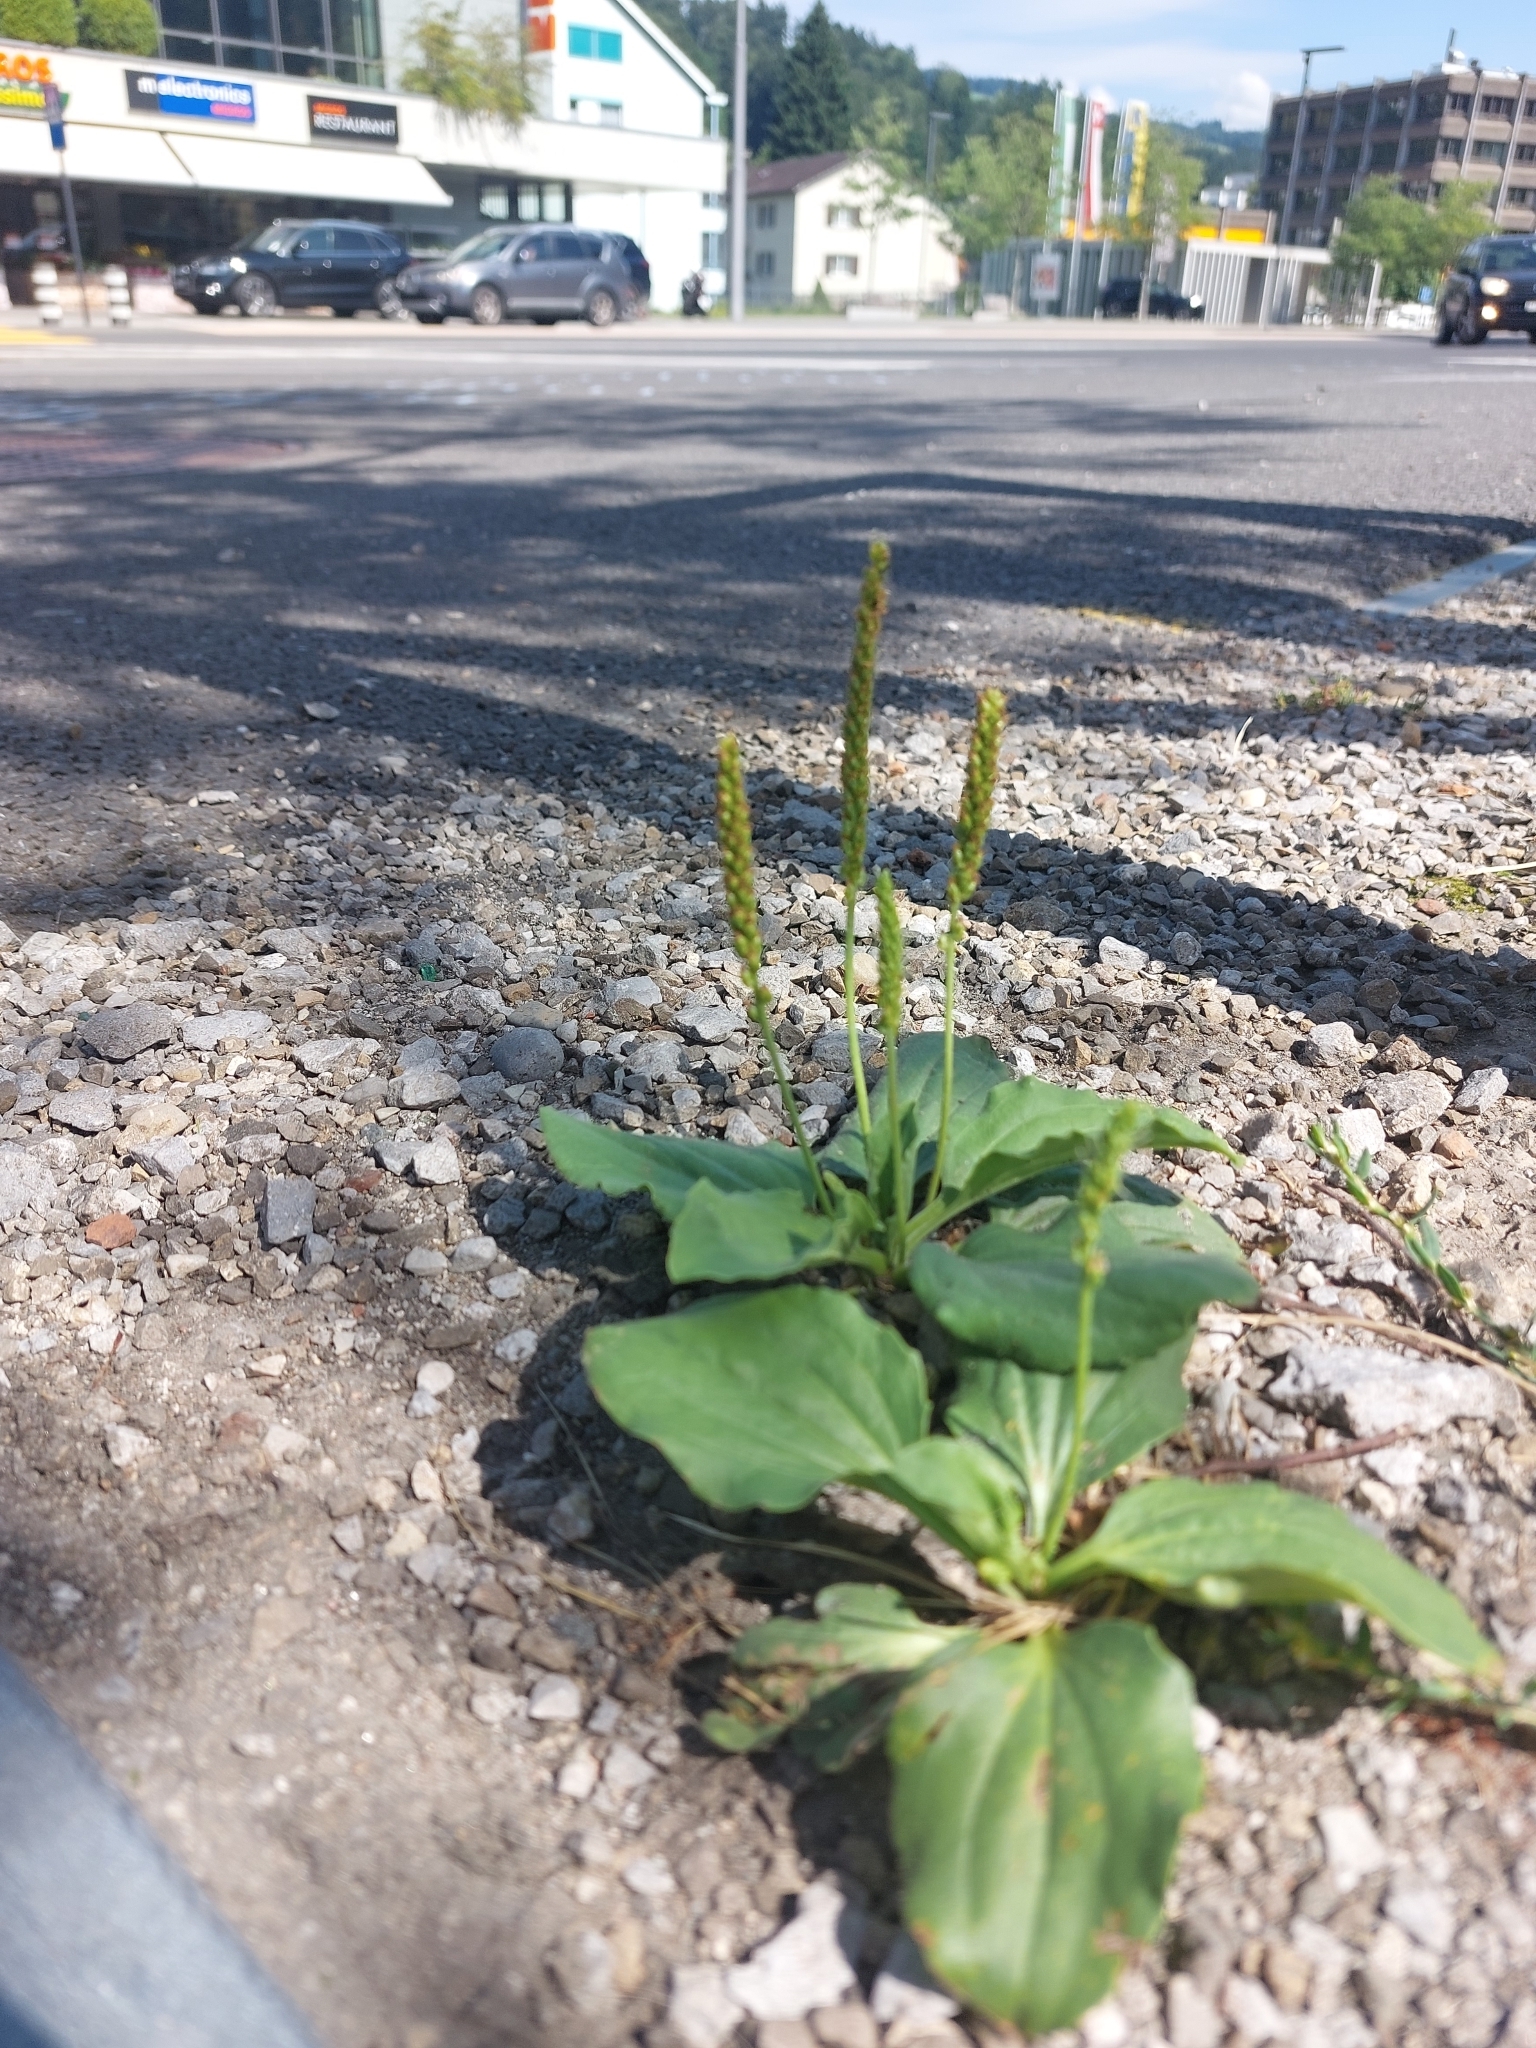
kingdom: Plantae
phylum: Tracheophyta
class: Magnoliopsida
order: Lamiales
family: Plantaginaceae
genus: Plantago
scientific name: Plantago major
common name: Common plantain
